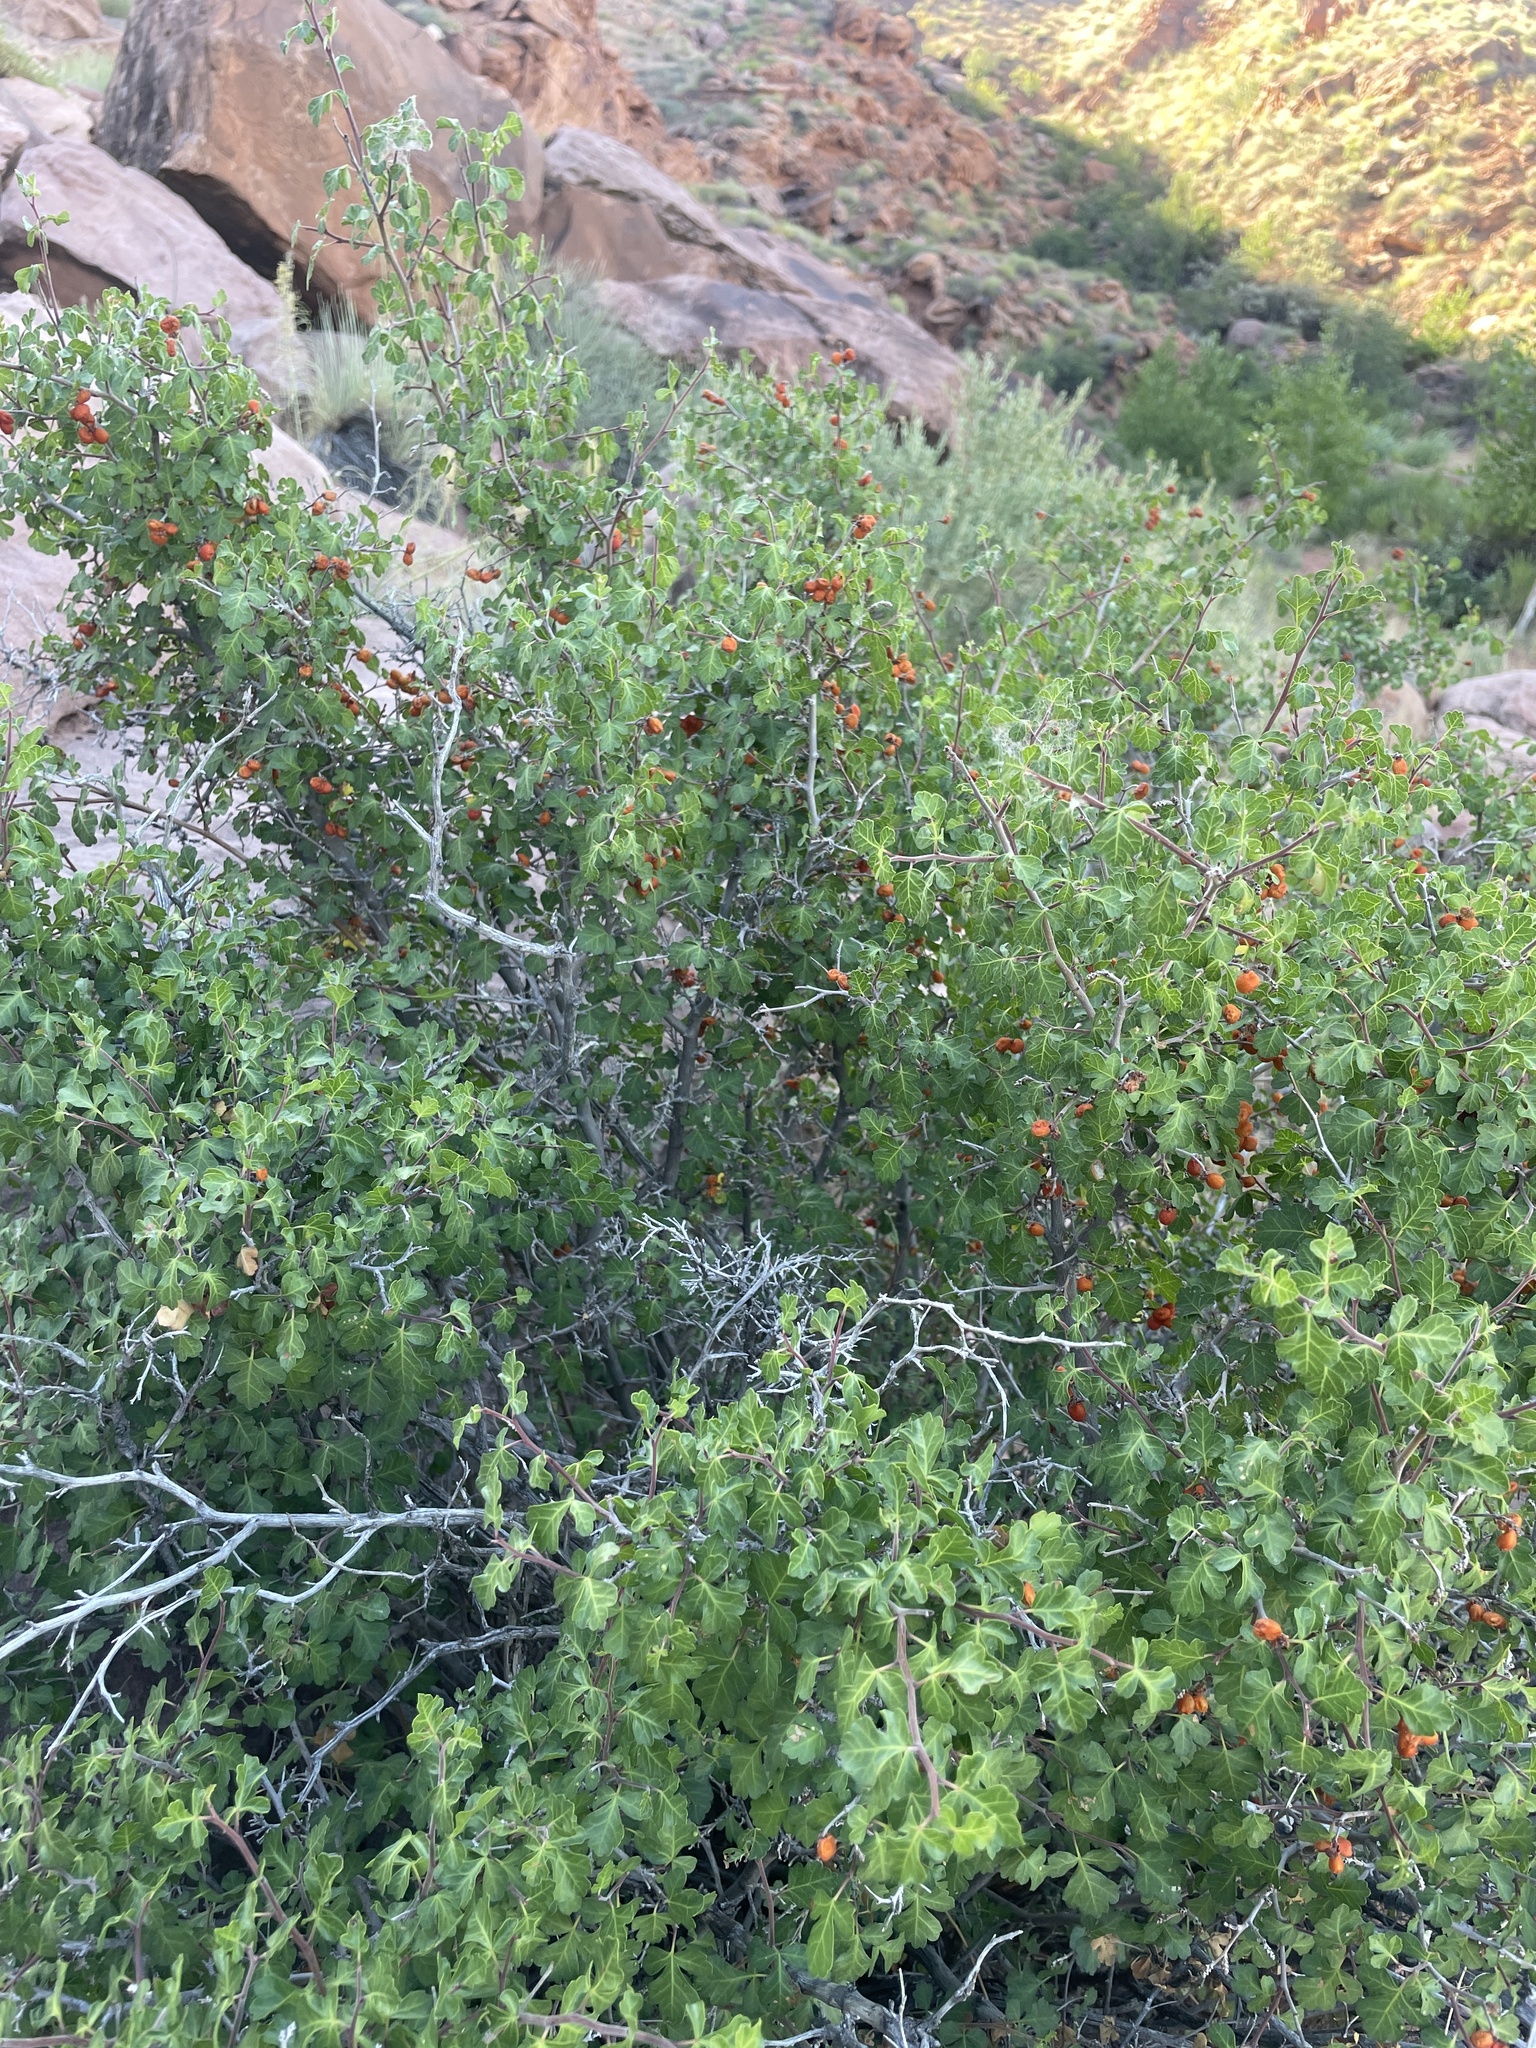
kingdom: Plantae
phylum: Tracheophyta
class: Magnoliopsida
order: Sapindales
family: Anacardiaceae
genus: Rhus
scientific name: Rhus trilobata
